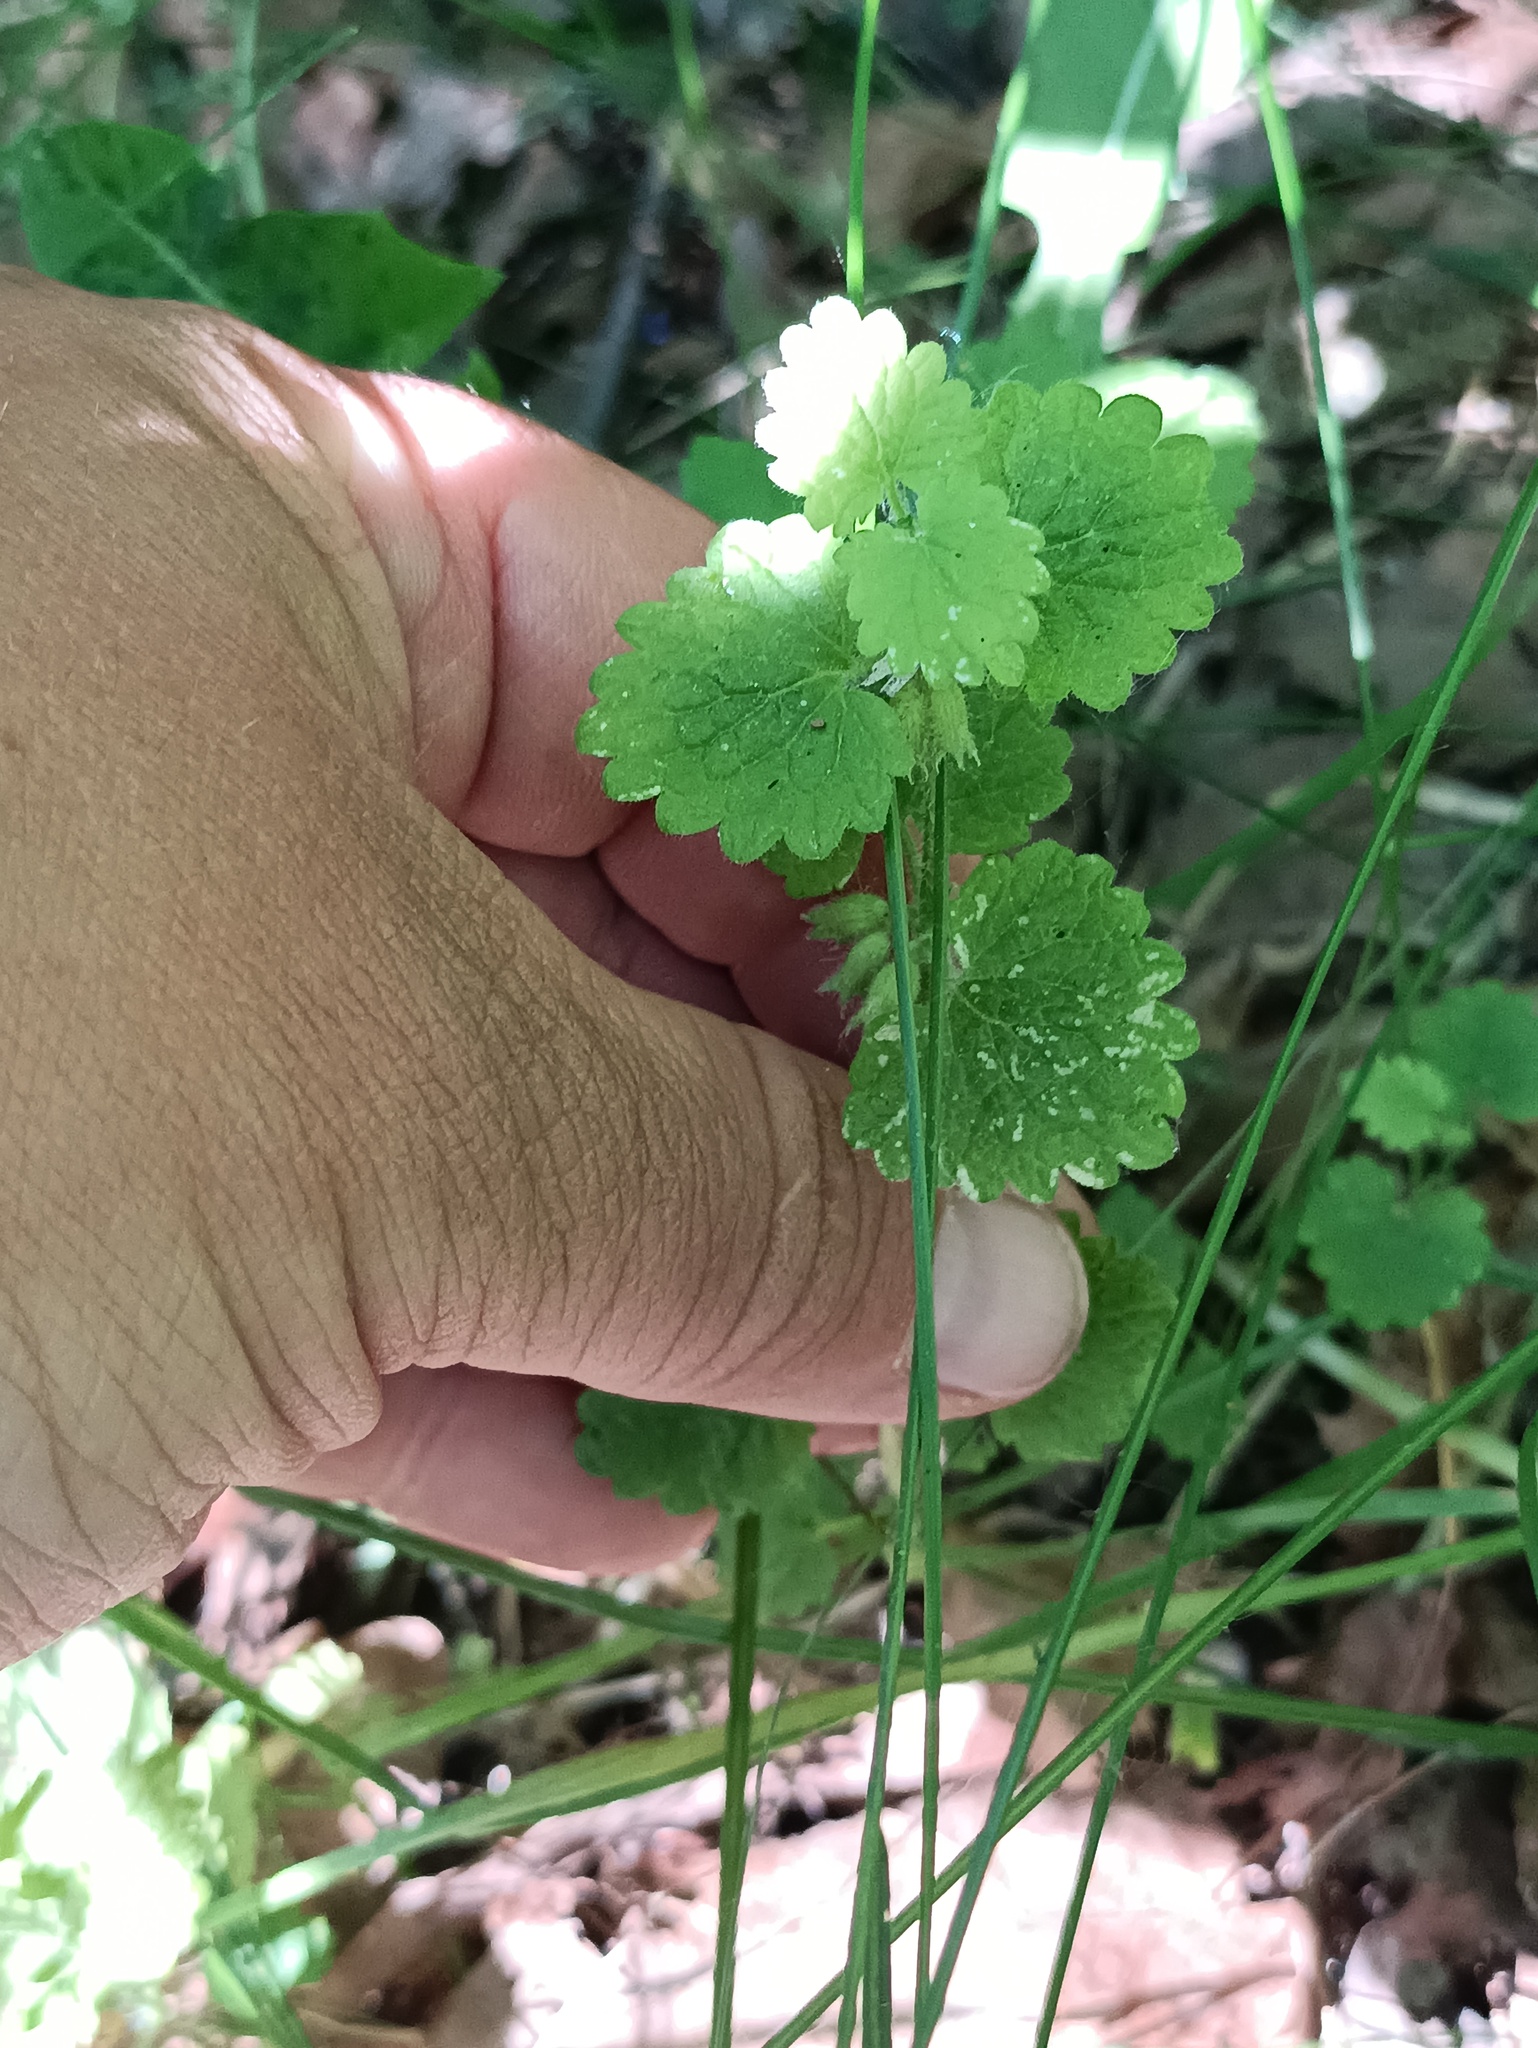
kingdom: Plantae
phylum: Tracheophyta
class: Magnoliopsida
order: Lamiales
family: Lamiaceae
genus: Glechoma
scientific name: Glechoma hederacea
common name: Ground ivy
